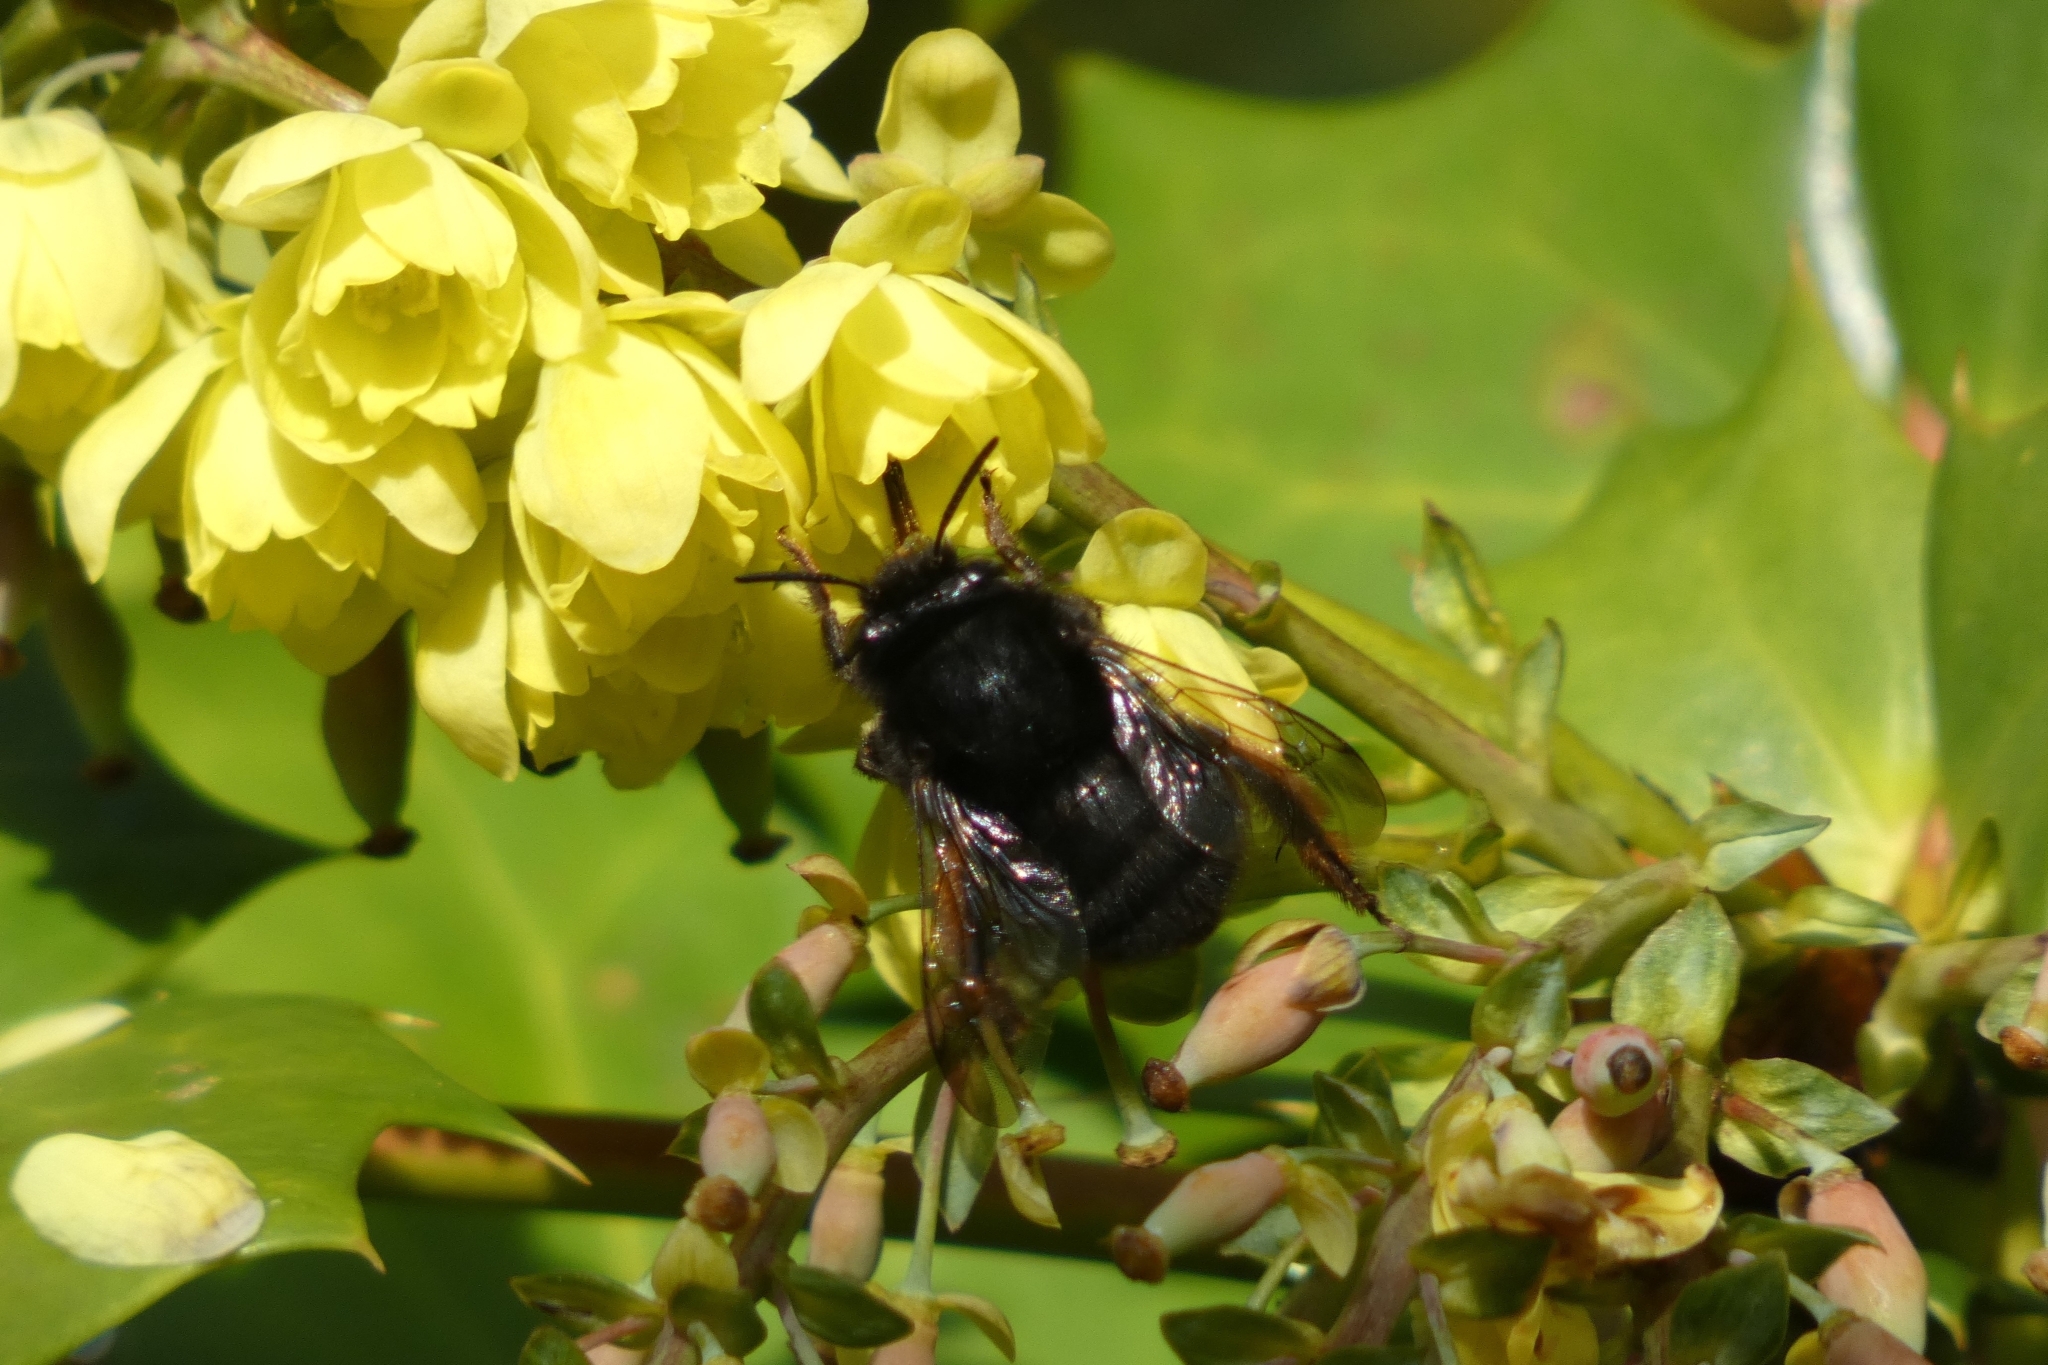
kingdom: Animalia
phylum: Arthropoda
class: Insecta
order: Hymenoptera
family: Apidae
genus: Anthophora
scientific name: Anthophora plumipes
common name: Hairy-footed flower bee
